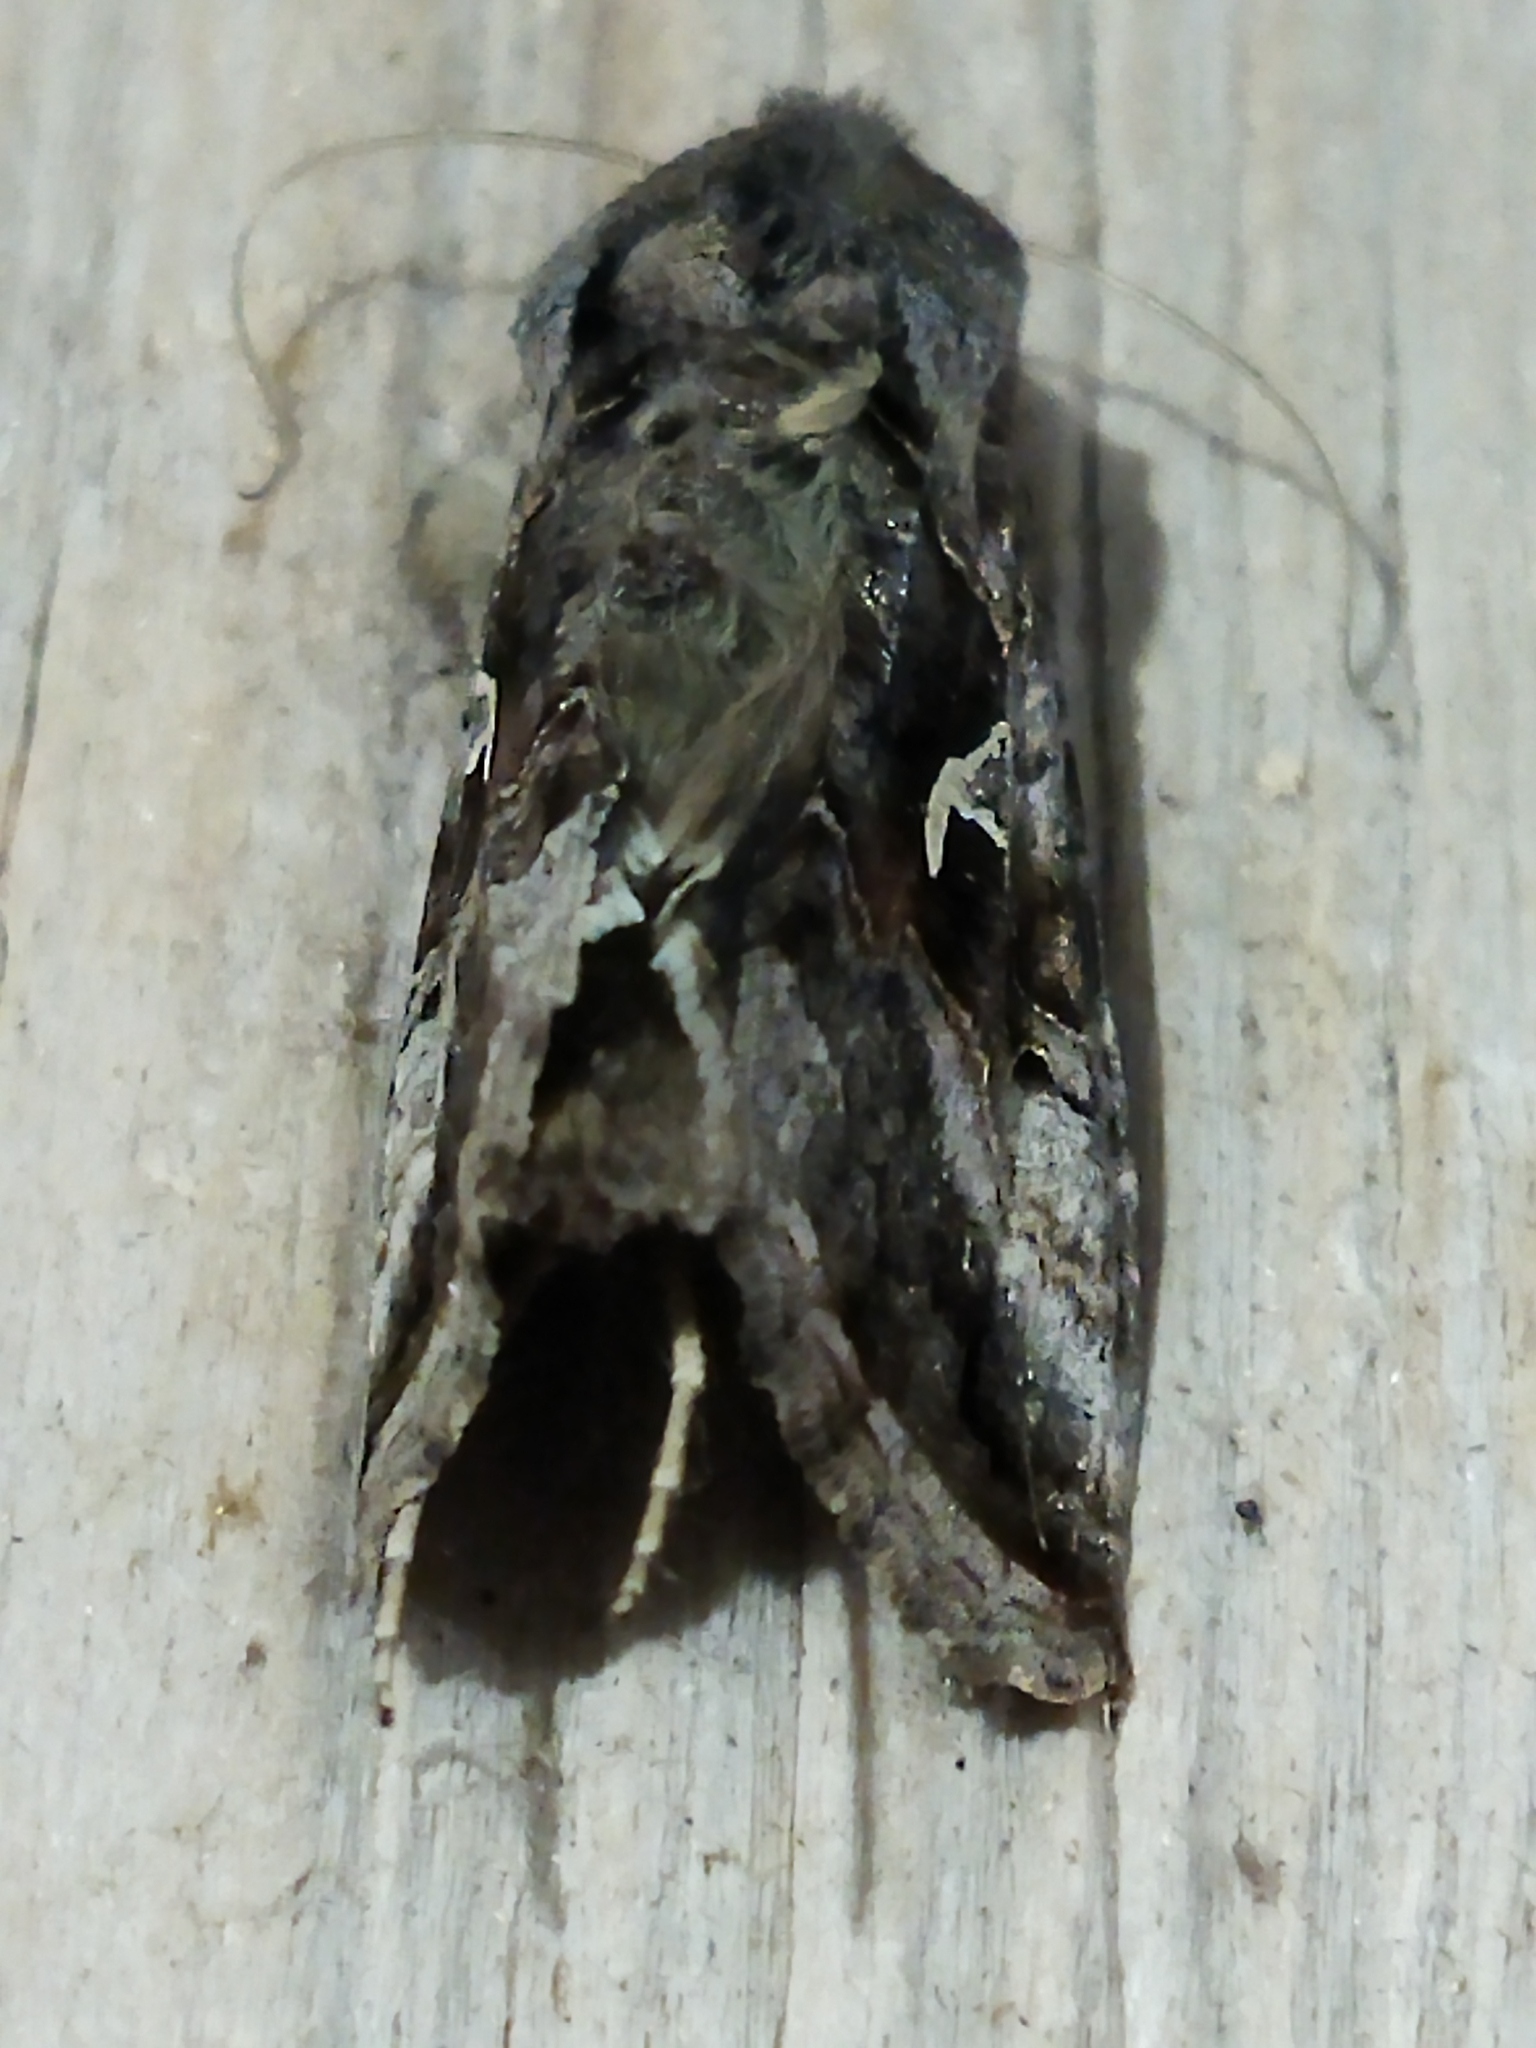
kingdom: Animalia
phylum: Arthropoda
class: Insecta
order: Lepidoptera
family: Noctuidae
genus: Autographa
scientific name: Autographa gamma
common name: Silver y
